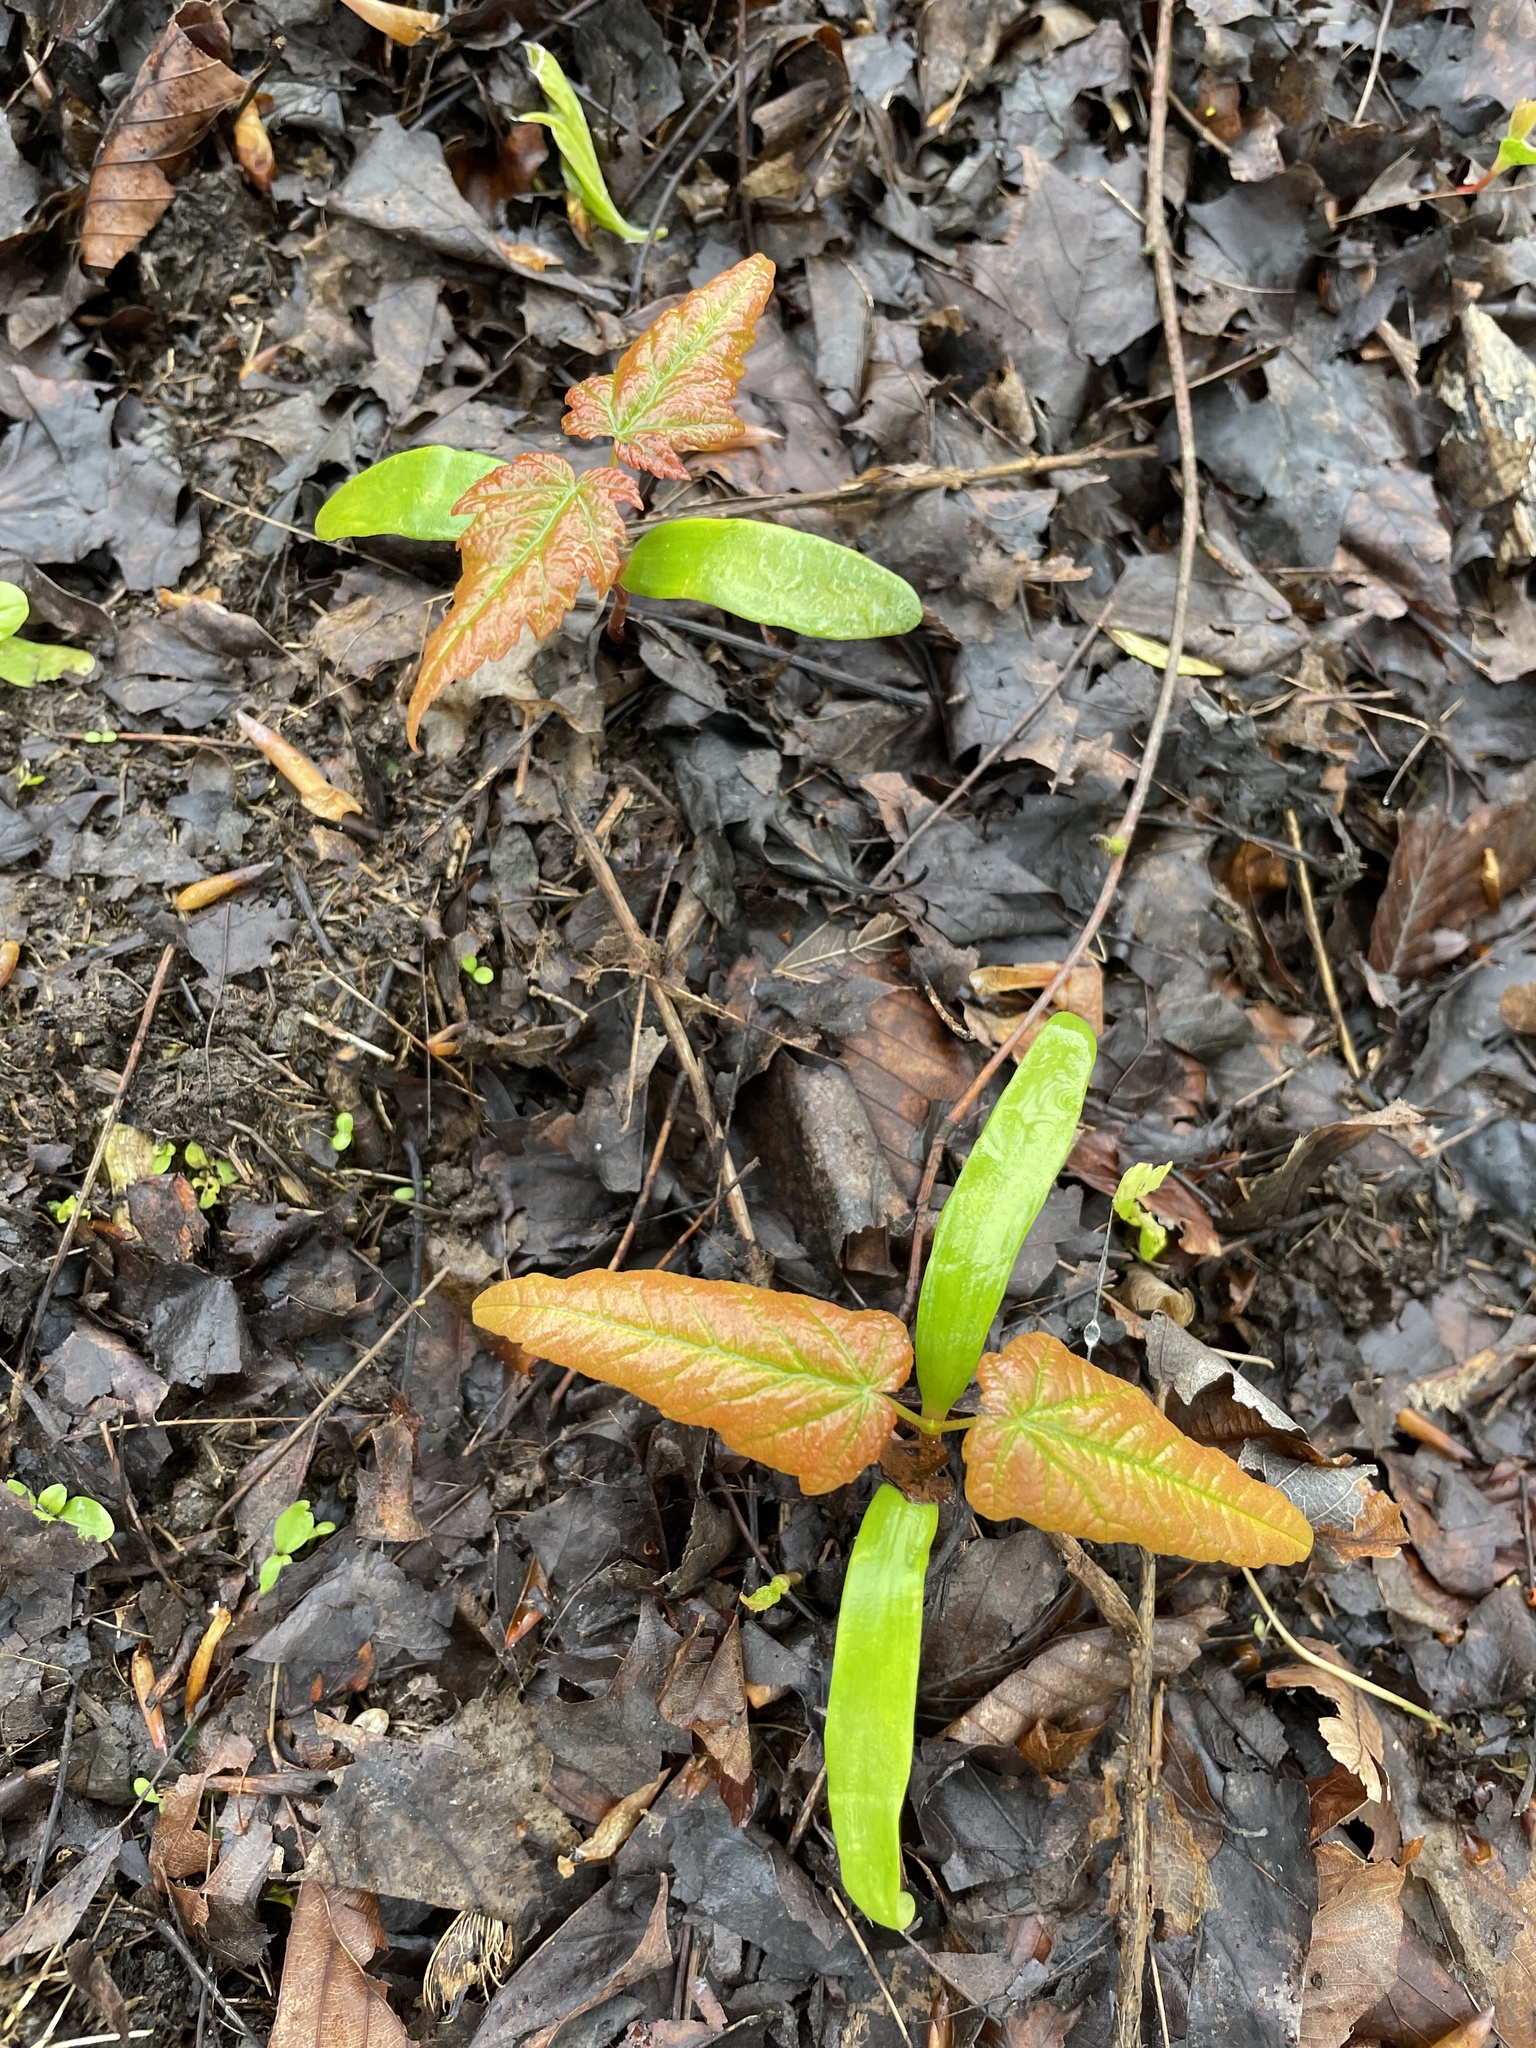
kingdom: Plantae
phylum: Tracheophyta
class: Magnoliopsida
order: Sapindales
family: Sapindaceae
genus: Acer
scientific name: Acer pseudoplatanus
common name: Sycamore
